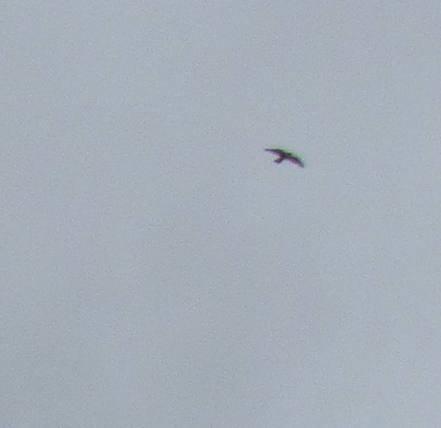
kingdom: Animalia
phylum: Chordata
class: Aves
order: Falconiformes
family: Falconidae
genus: Falco
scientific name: Falco peregrinus
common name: Peregrine falcon
